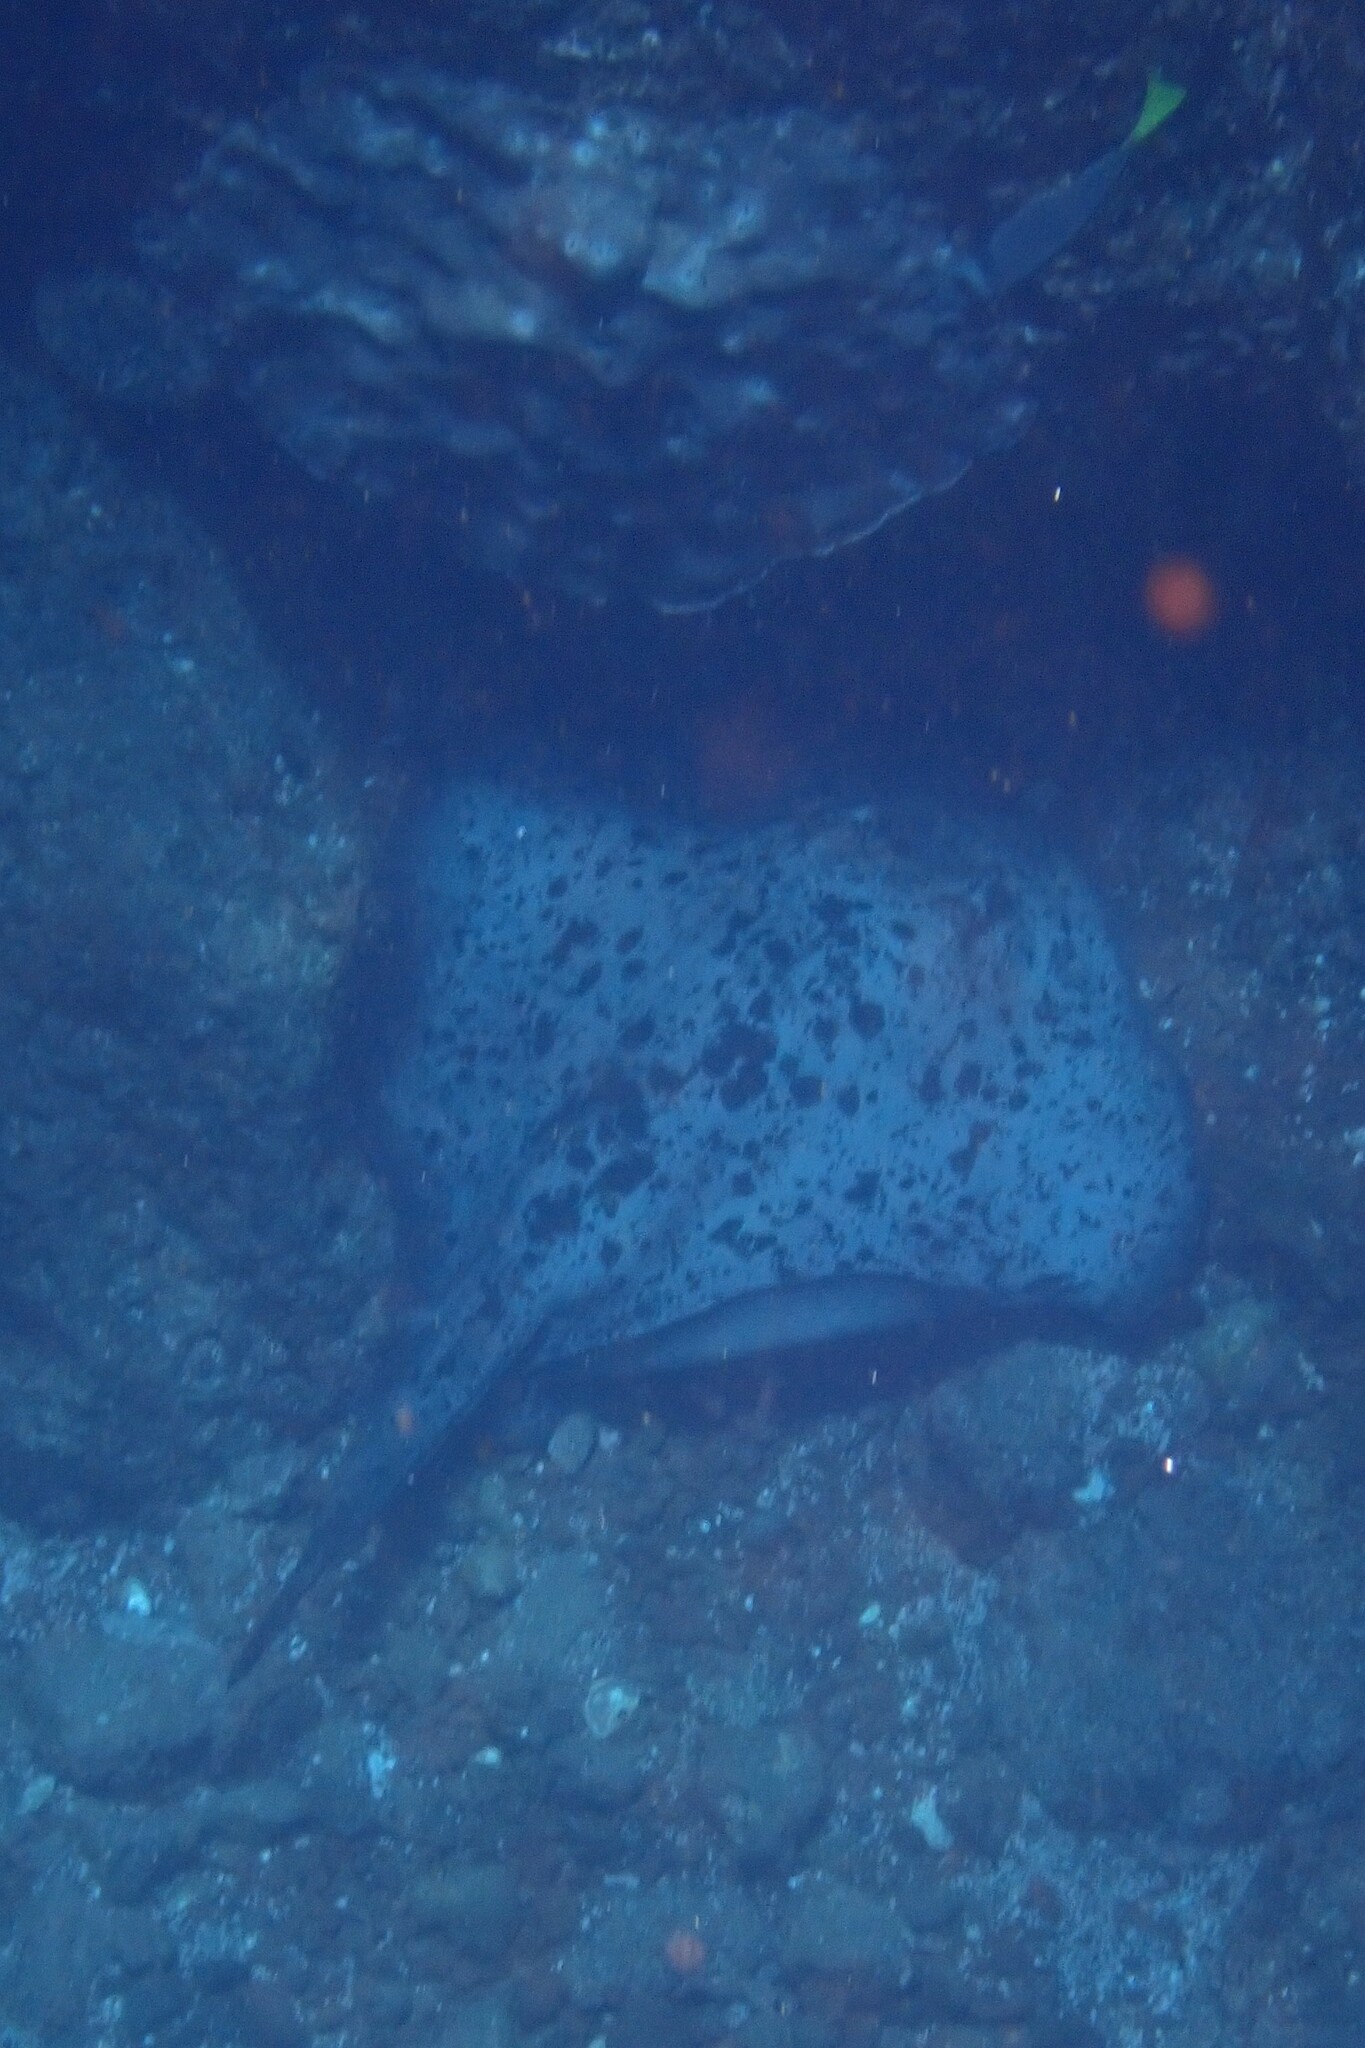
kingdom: Animalia
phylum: Chordata
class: Elasmobranchii
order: Myliobatiformes
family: Dasyatidae
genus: Taeniurops
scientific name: Taeniurops meyeni
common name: Black-blotched stingray
